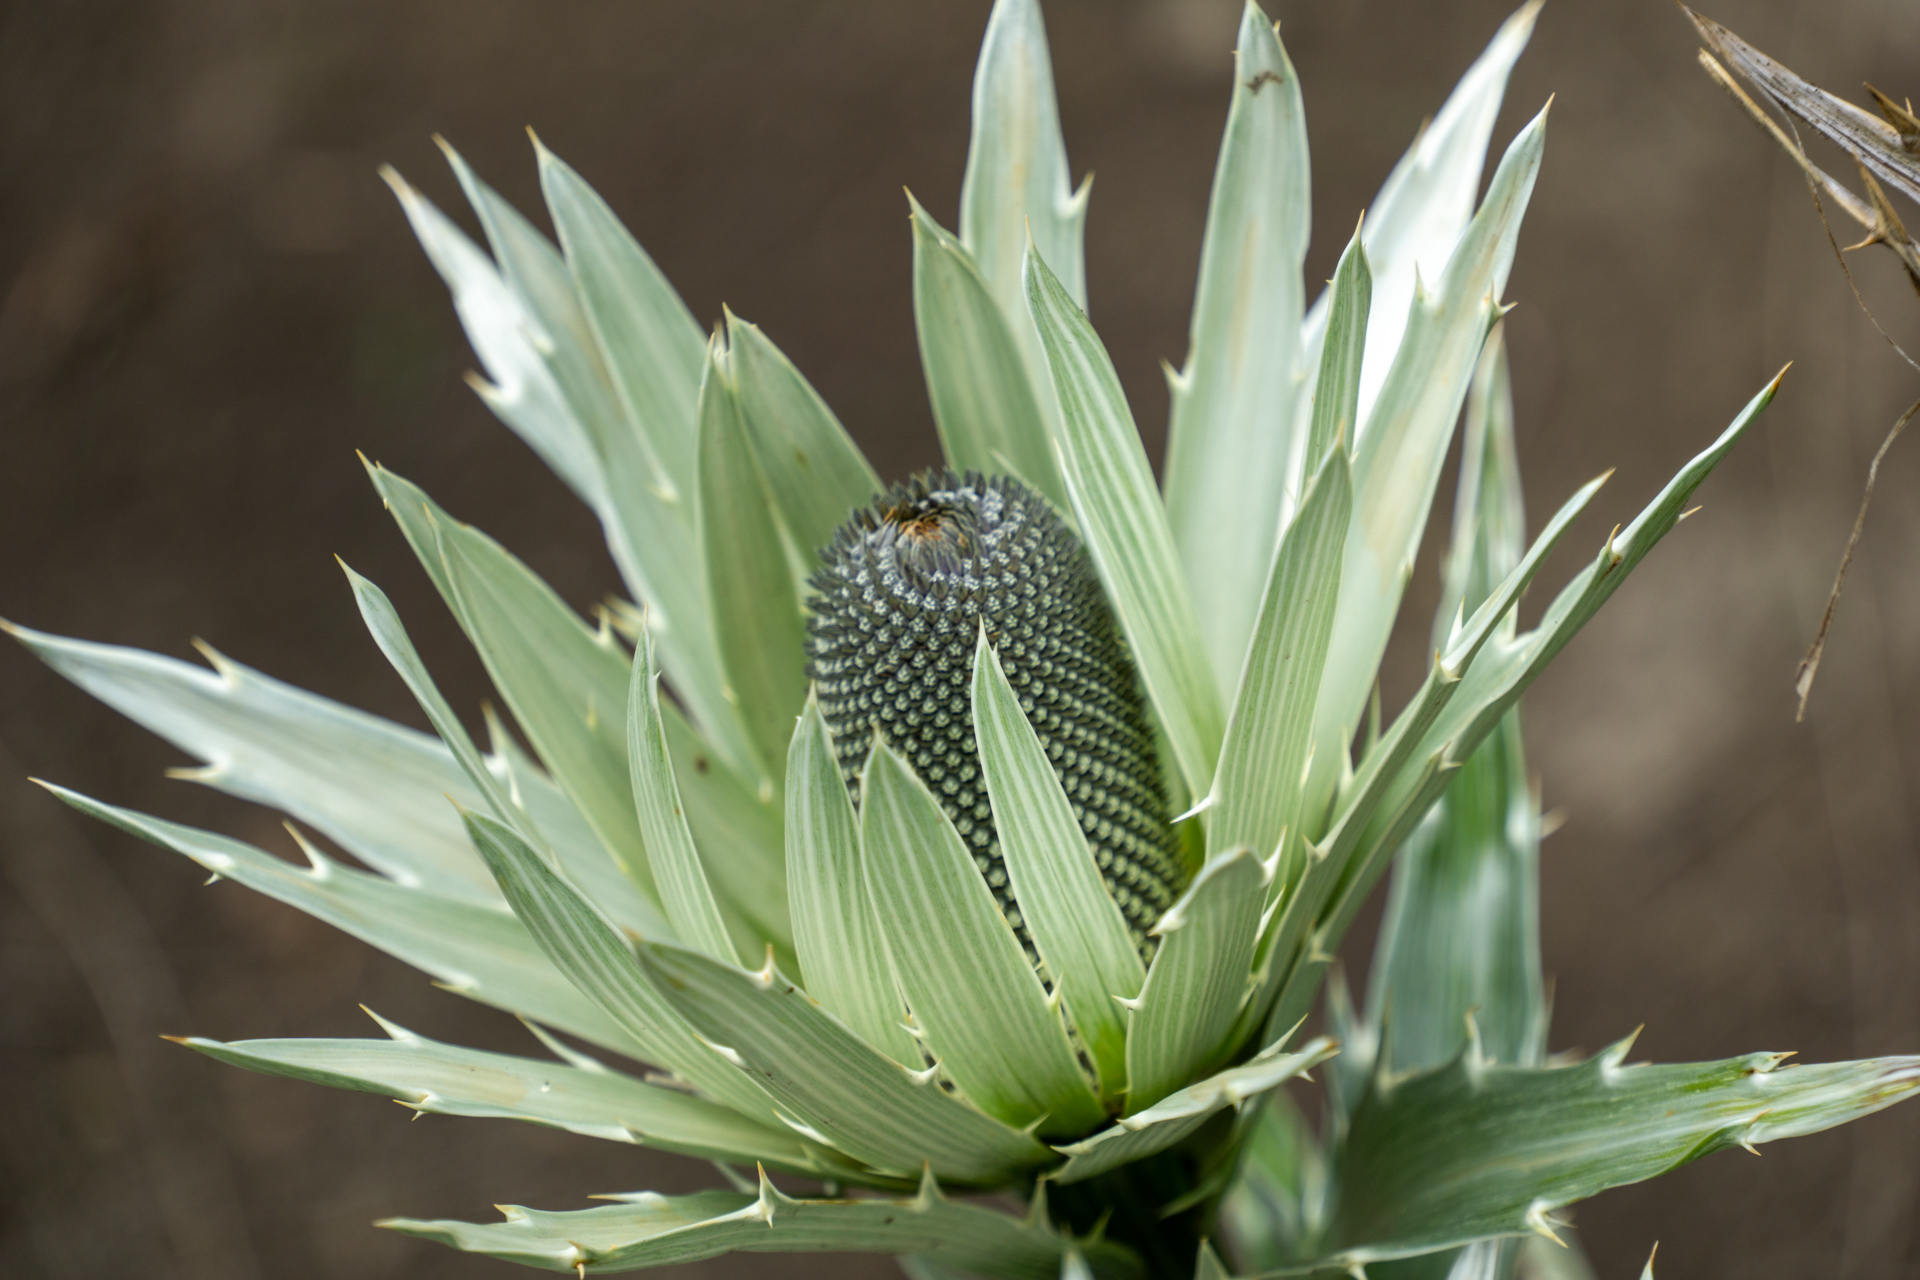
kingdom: Plantae
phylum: Tracheophyta
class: Magnoliopsida
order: Apiales
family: Apiaceae
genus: Eryngium
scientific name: Eryngium proteiflorum
